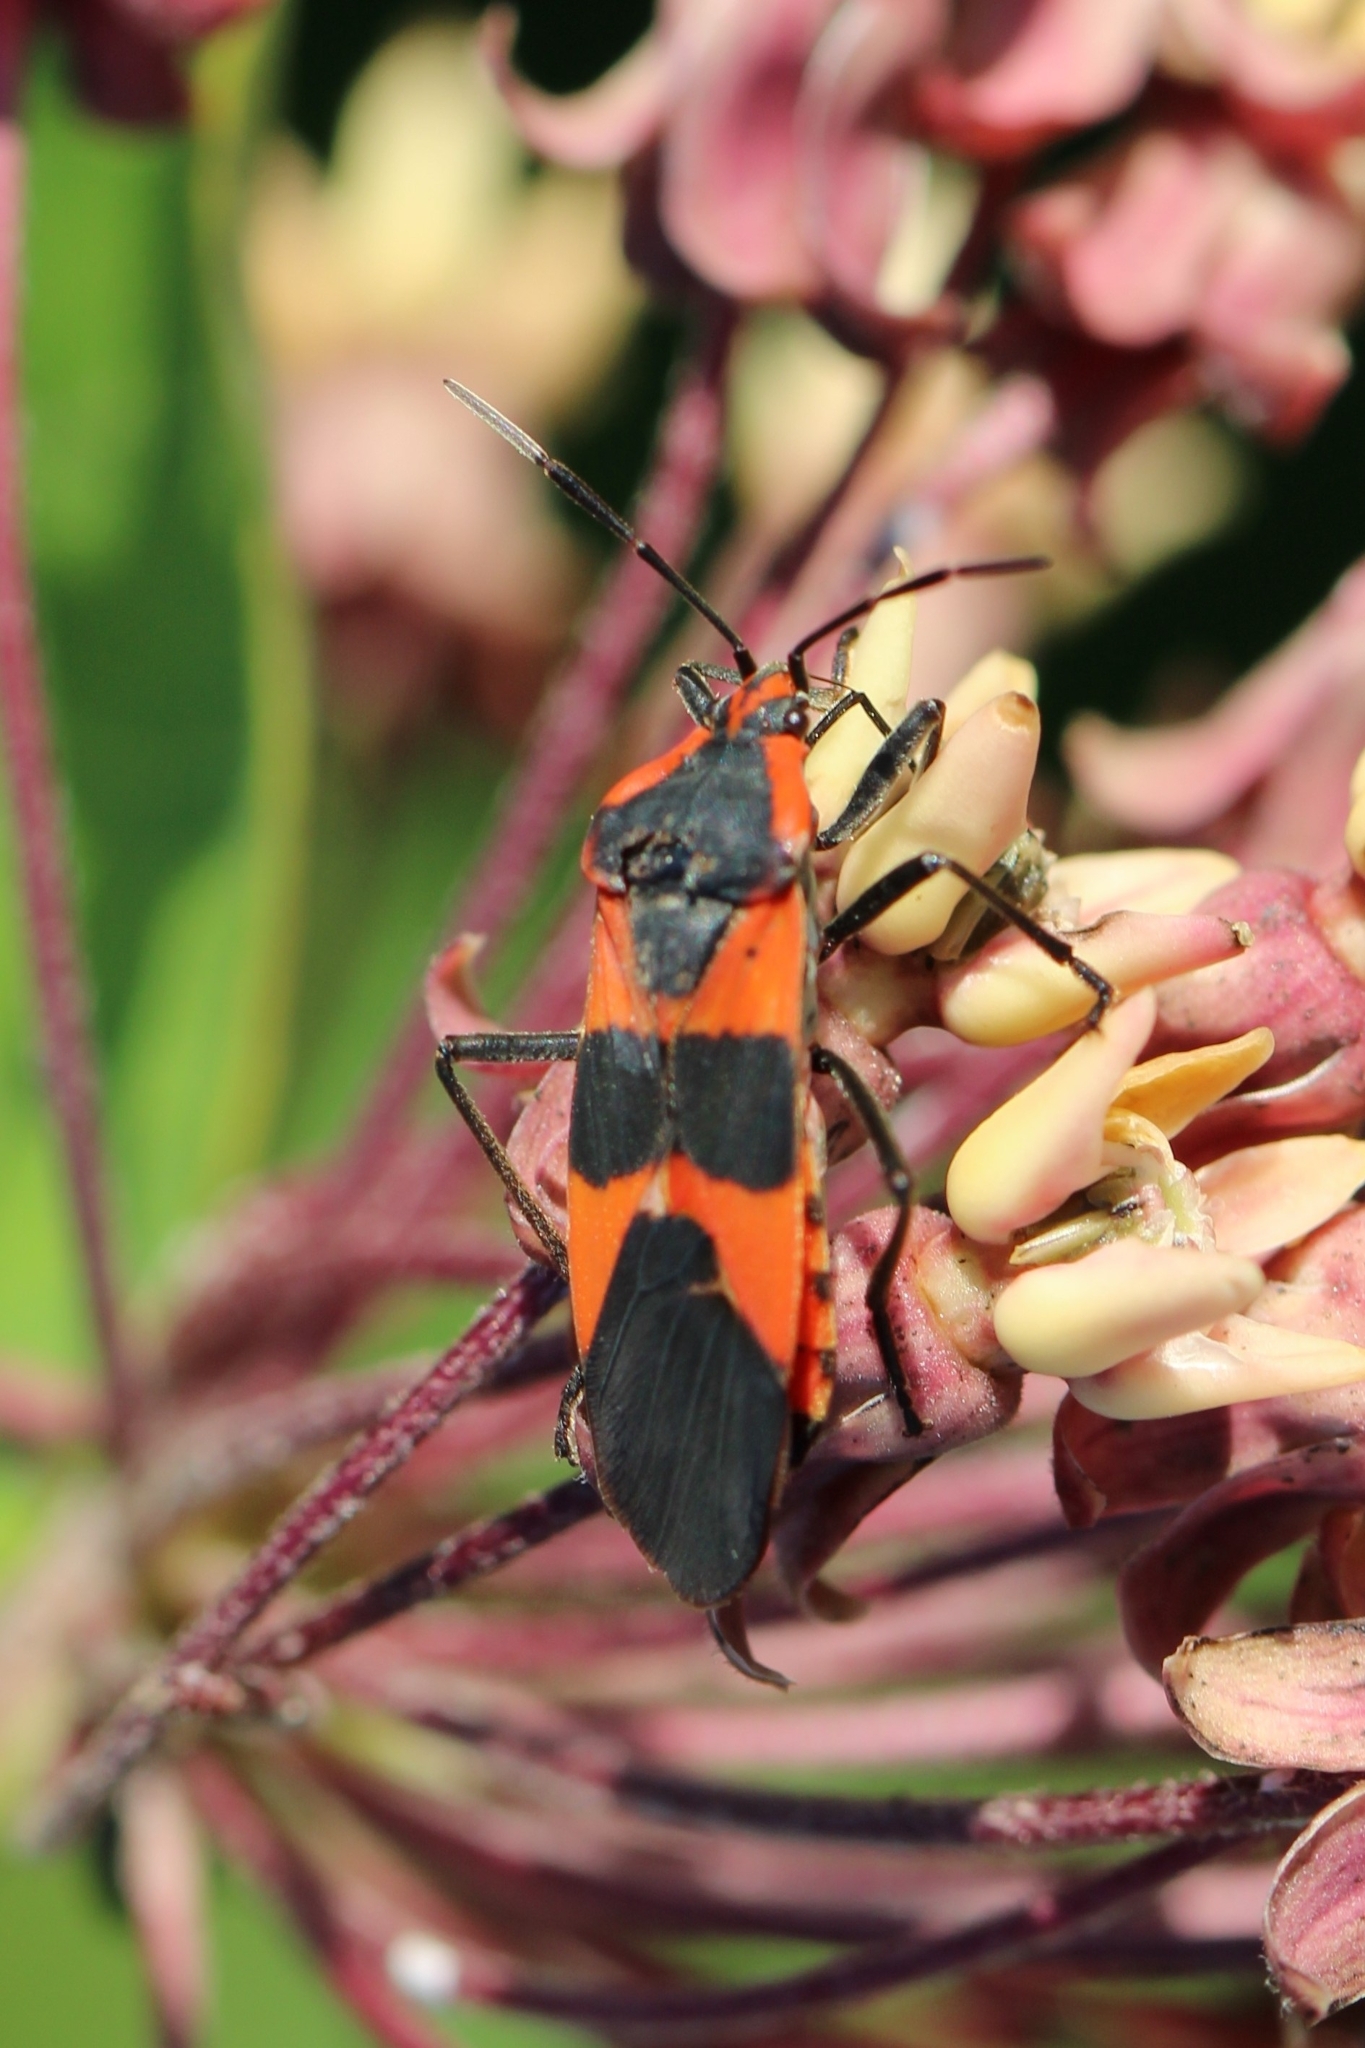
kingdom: Animalia
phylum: Arthropoda
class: Insecta
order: Hemiptera
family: Lygaeidae
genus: Oncopeltus
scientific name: Oncopeltus fasciatus
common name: Large milkweed bug
